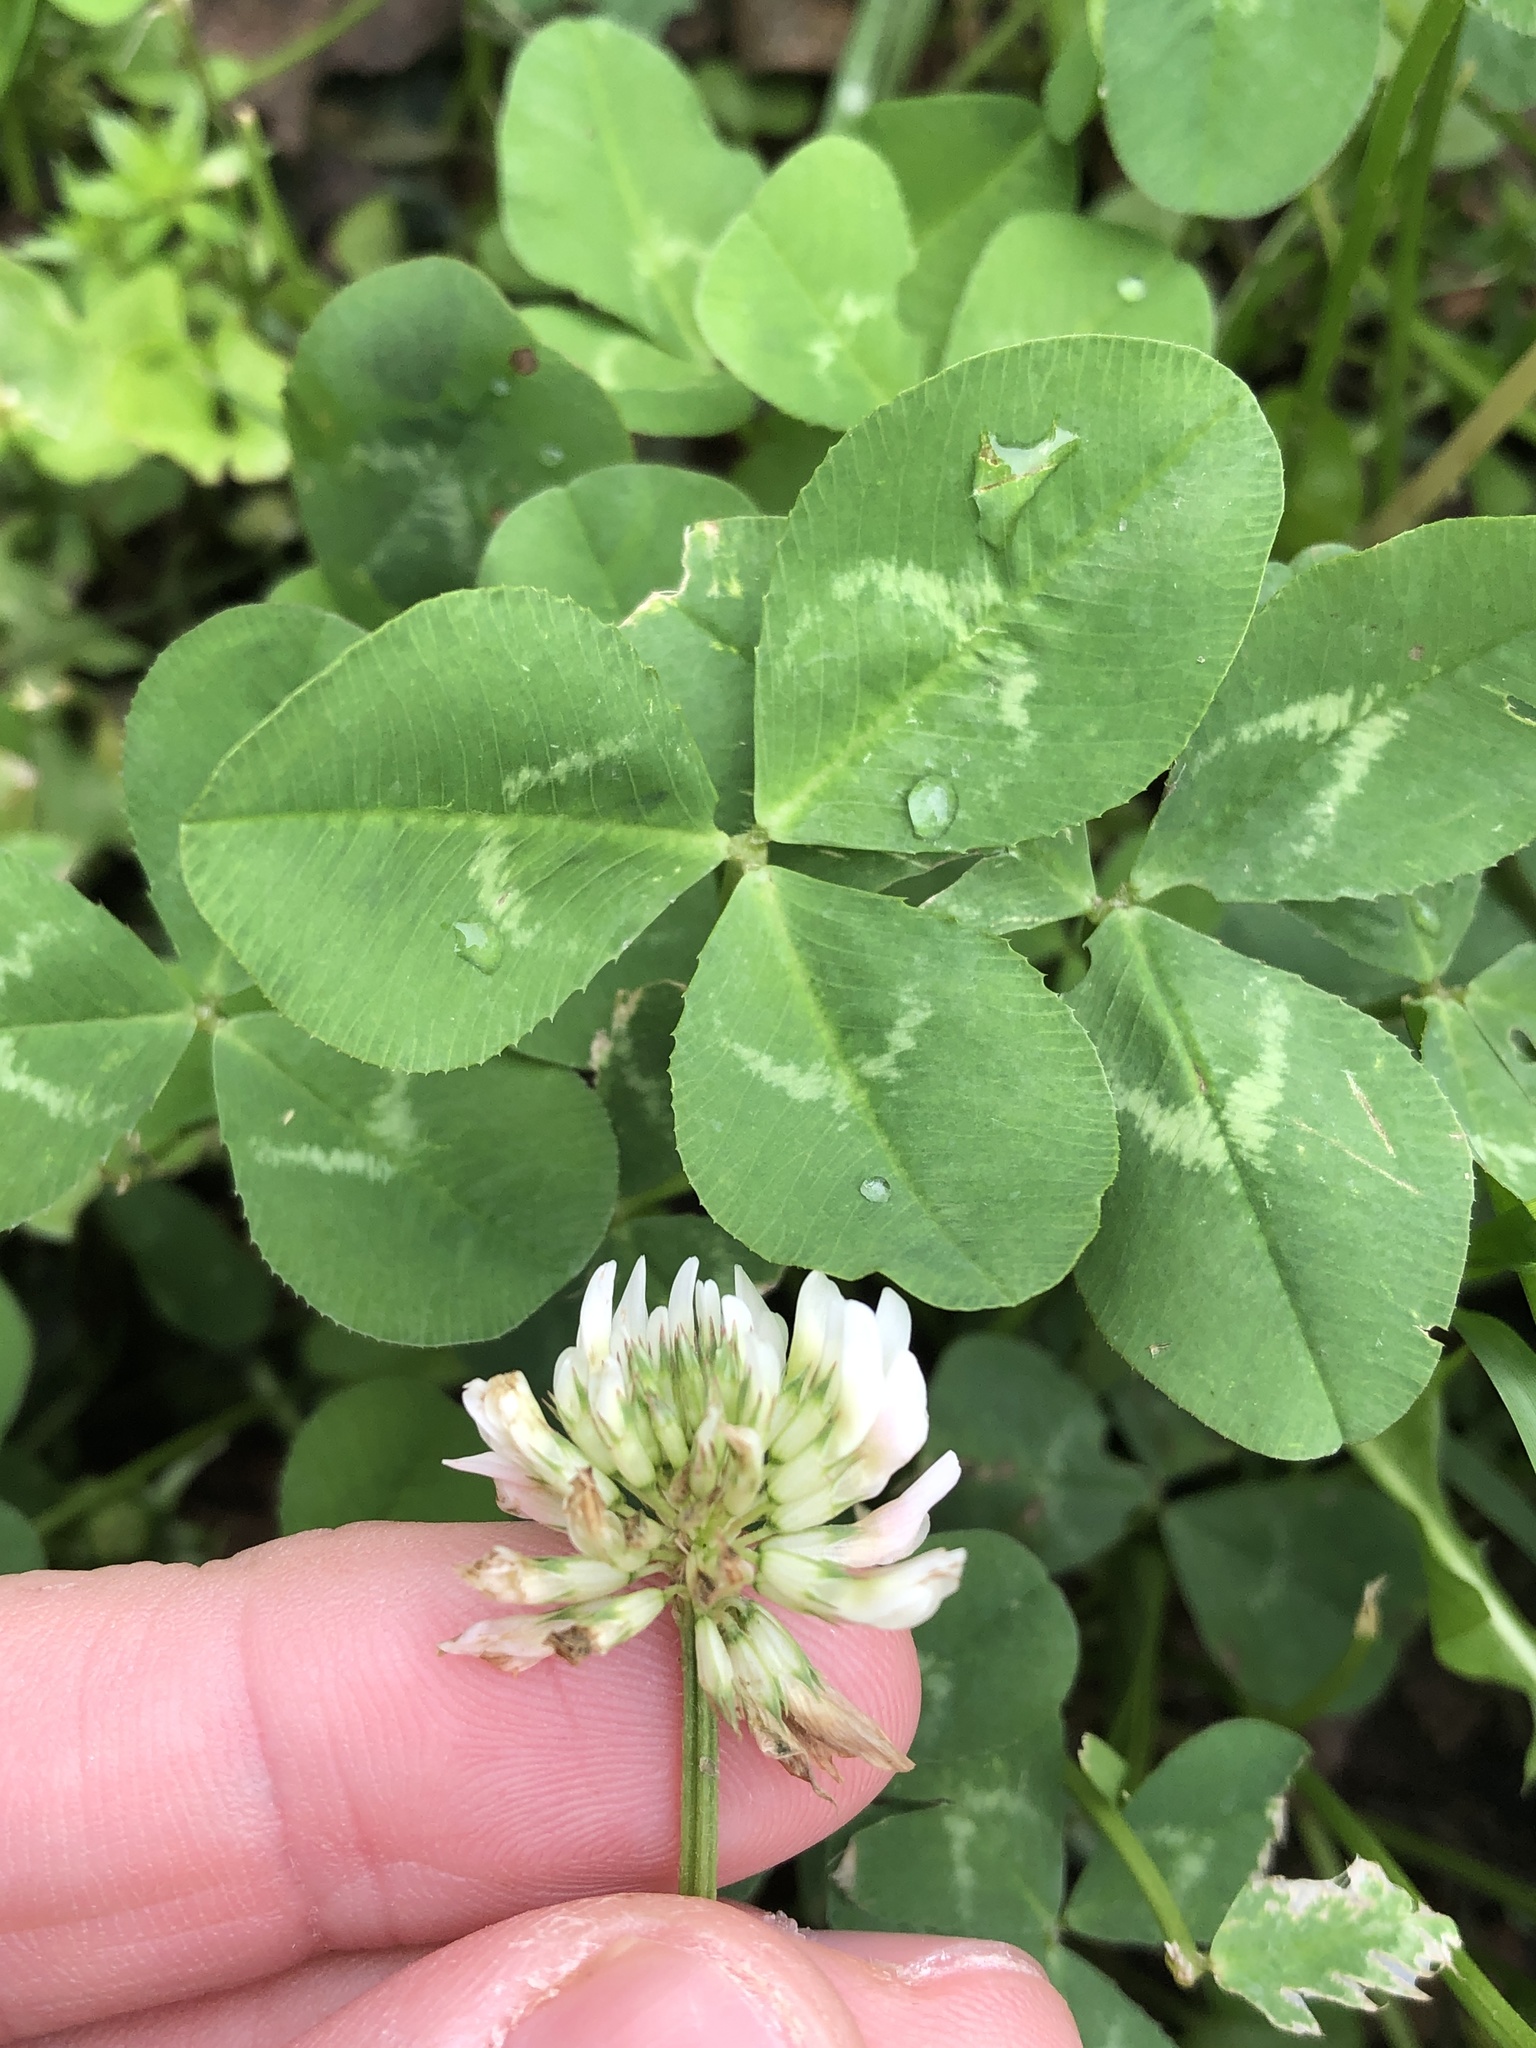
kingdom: Plantae
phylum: Tracheophyta
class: Magnoliopsida
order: Fabales
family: Fabaceae
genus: Trifolium
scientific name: Trifolium repens
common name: White clover
